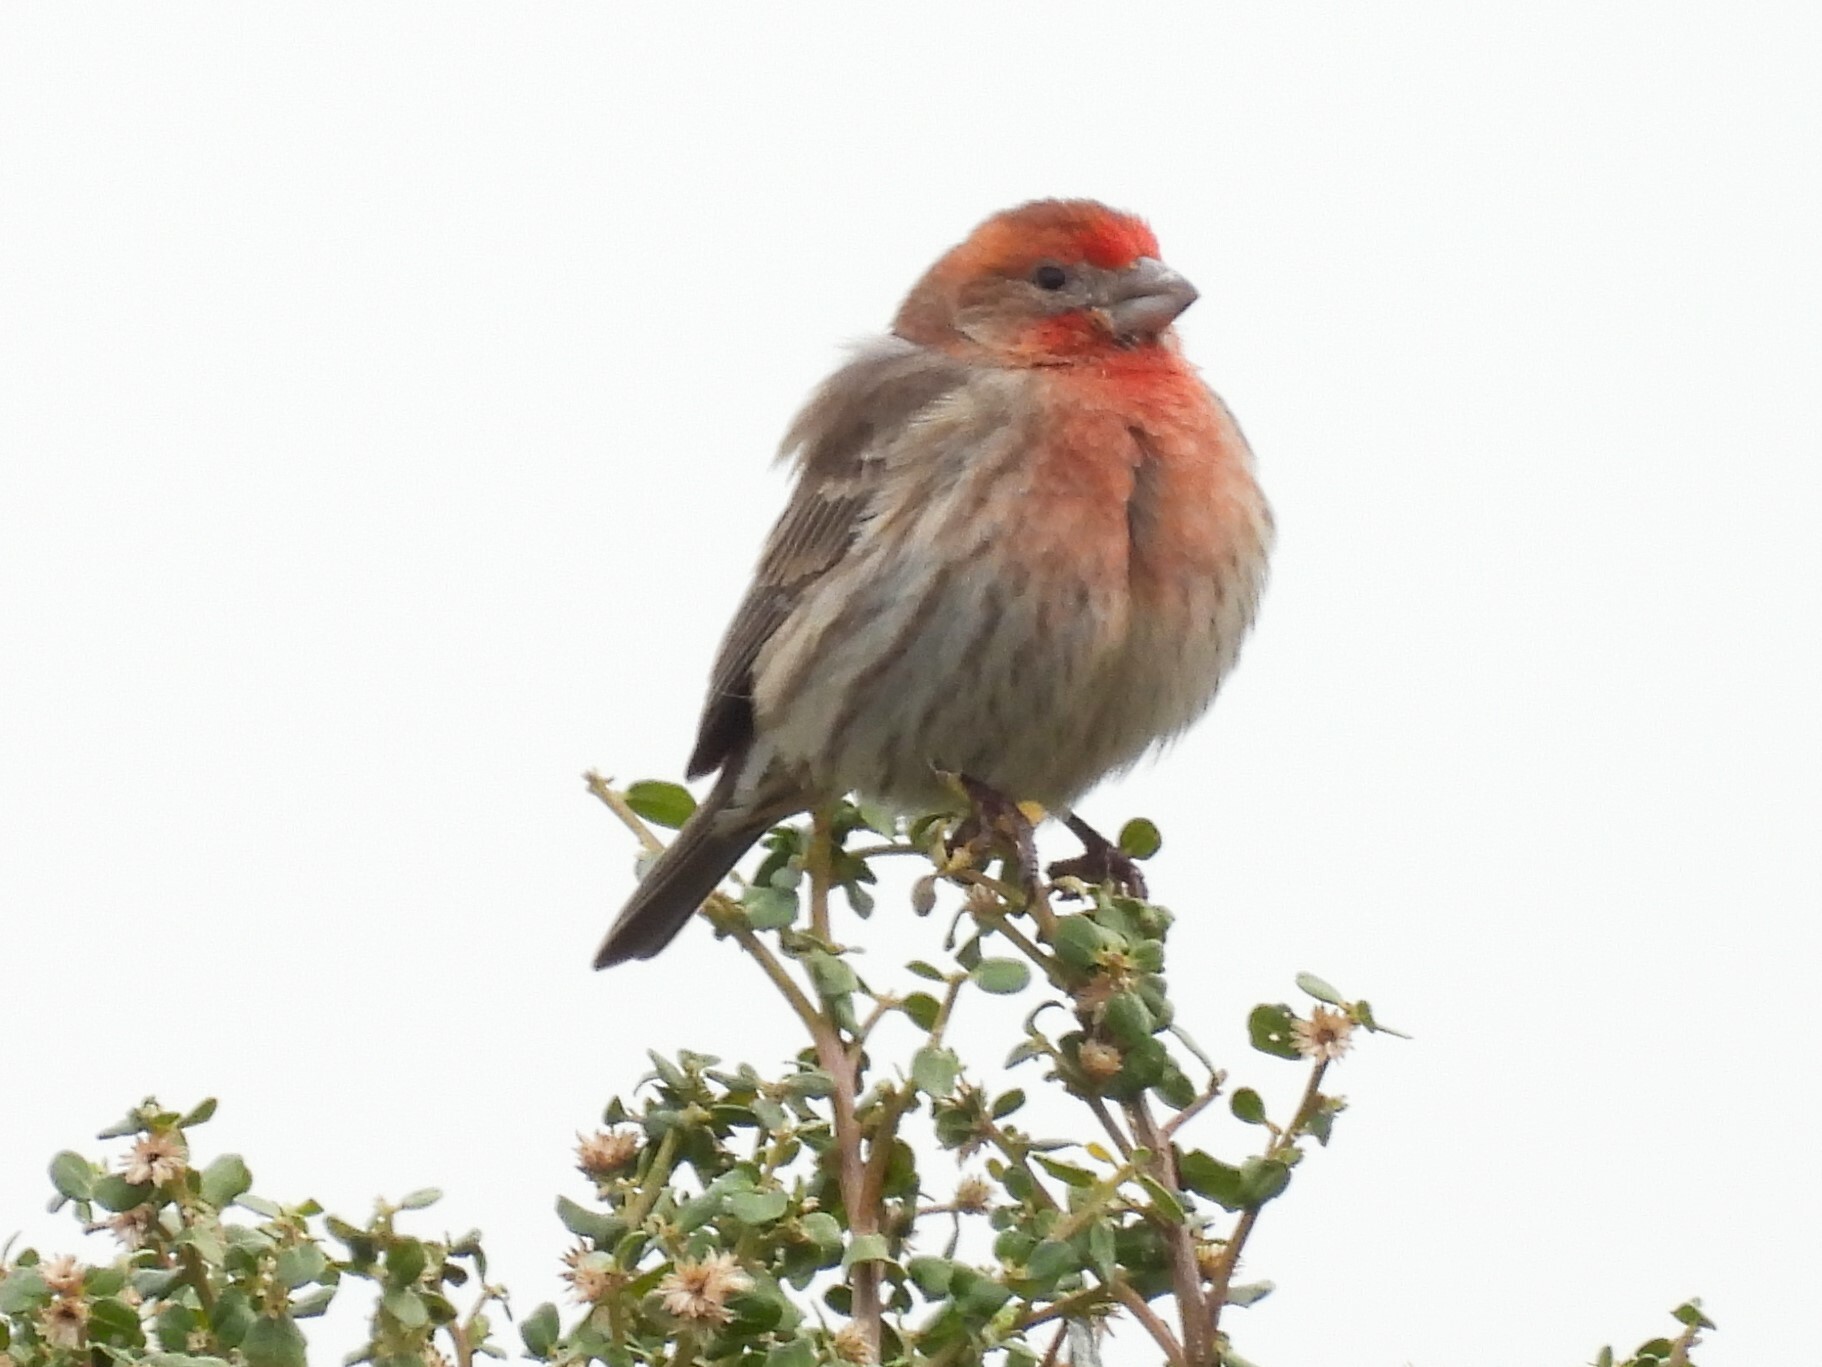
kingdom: Animalia
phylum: Chordata
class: Aves
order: Passeriformes
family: Fringillidae
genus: Haemorhous
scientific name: Haemorhous mexicanus
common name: House finch
